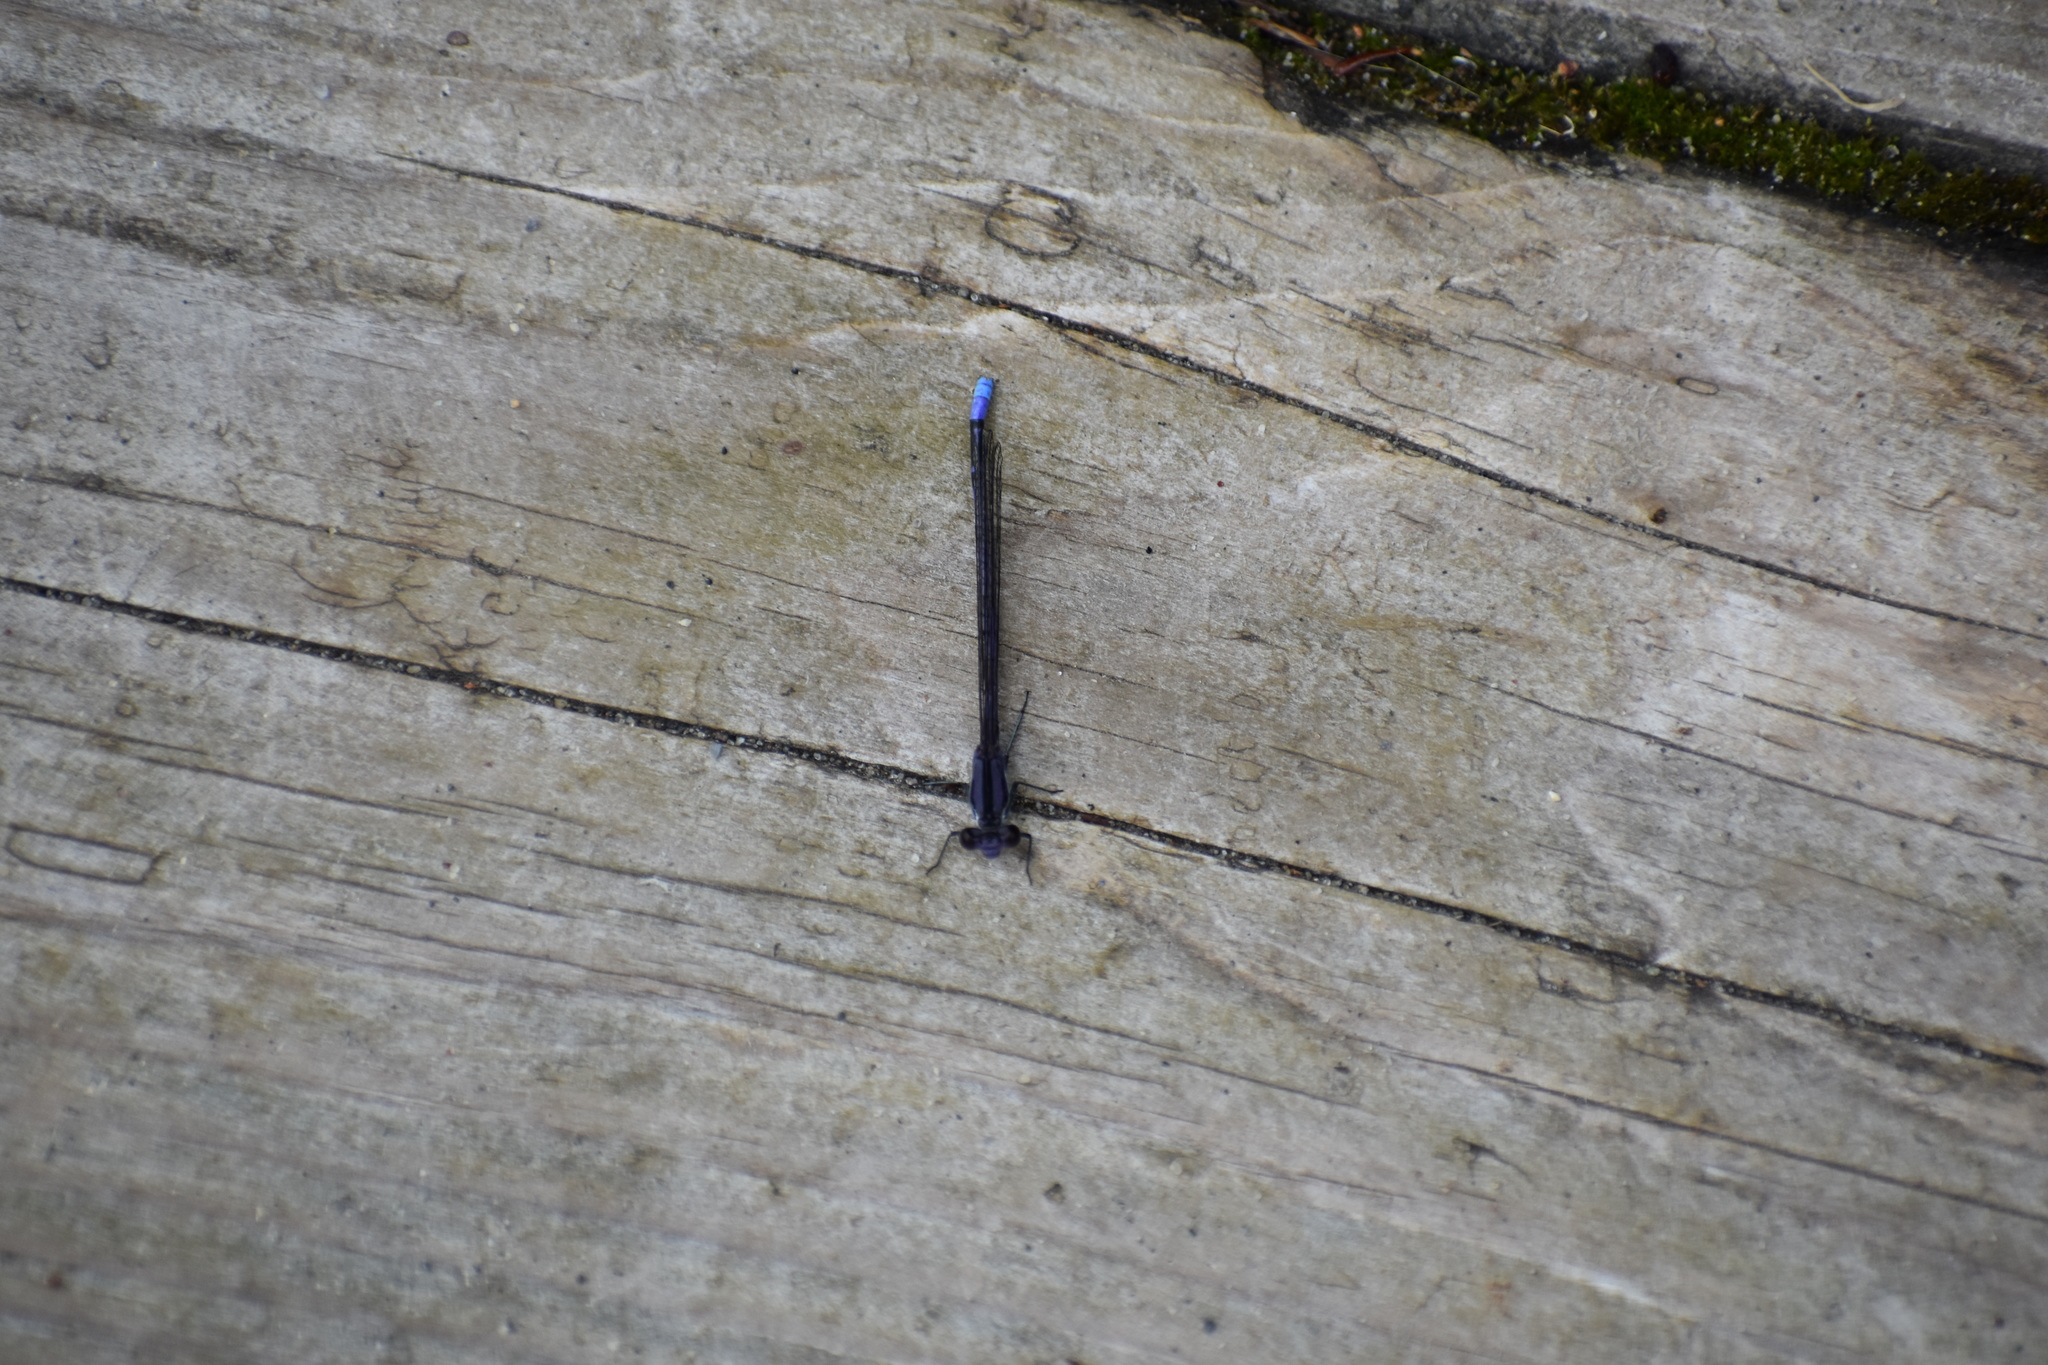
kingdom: Animalia
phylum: Arthropoda
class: Insecta
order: Odonata
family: Coenagrionidae
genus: Argia
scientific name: Argia fumipennis
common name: Variable dancer
